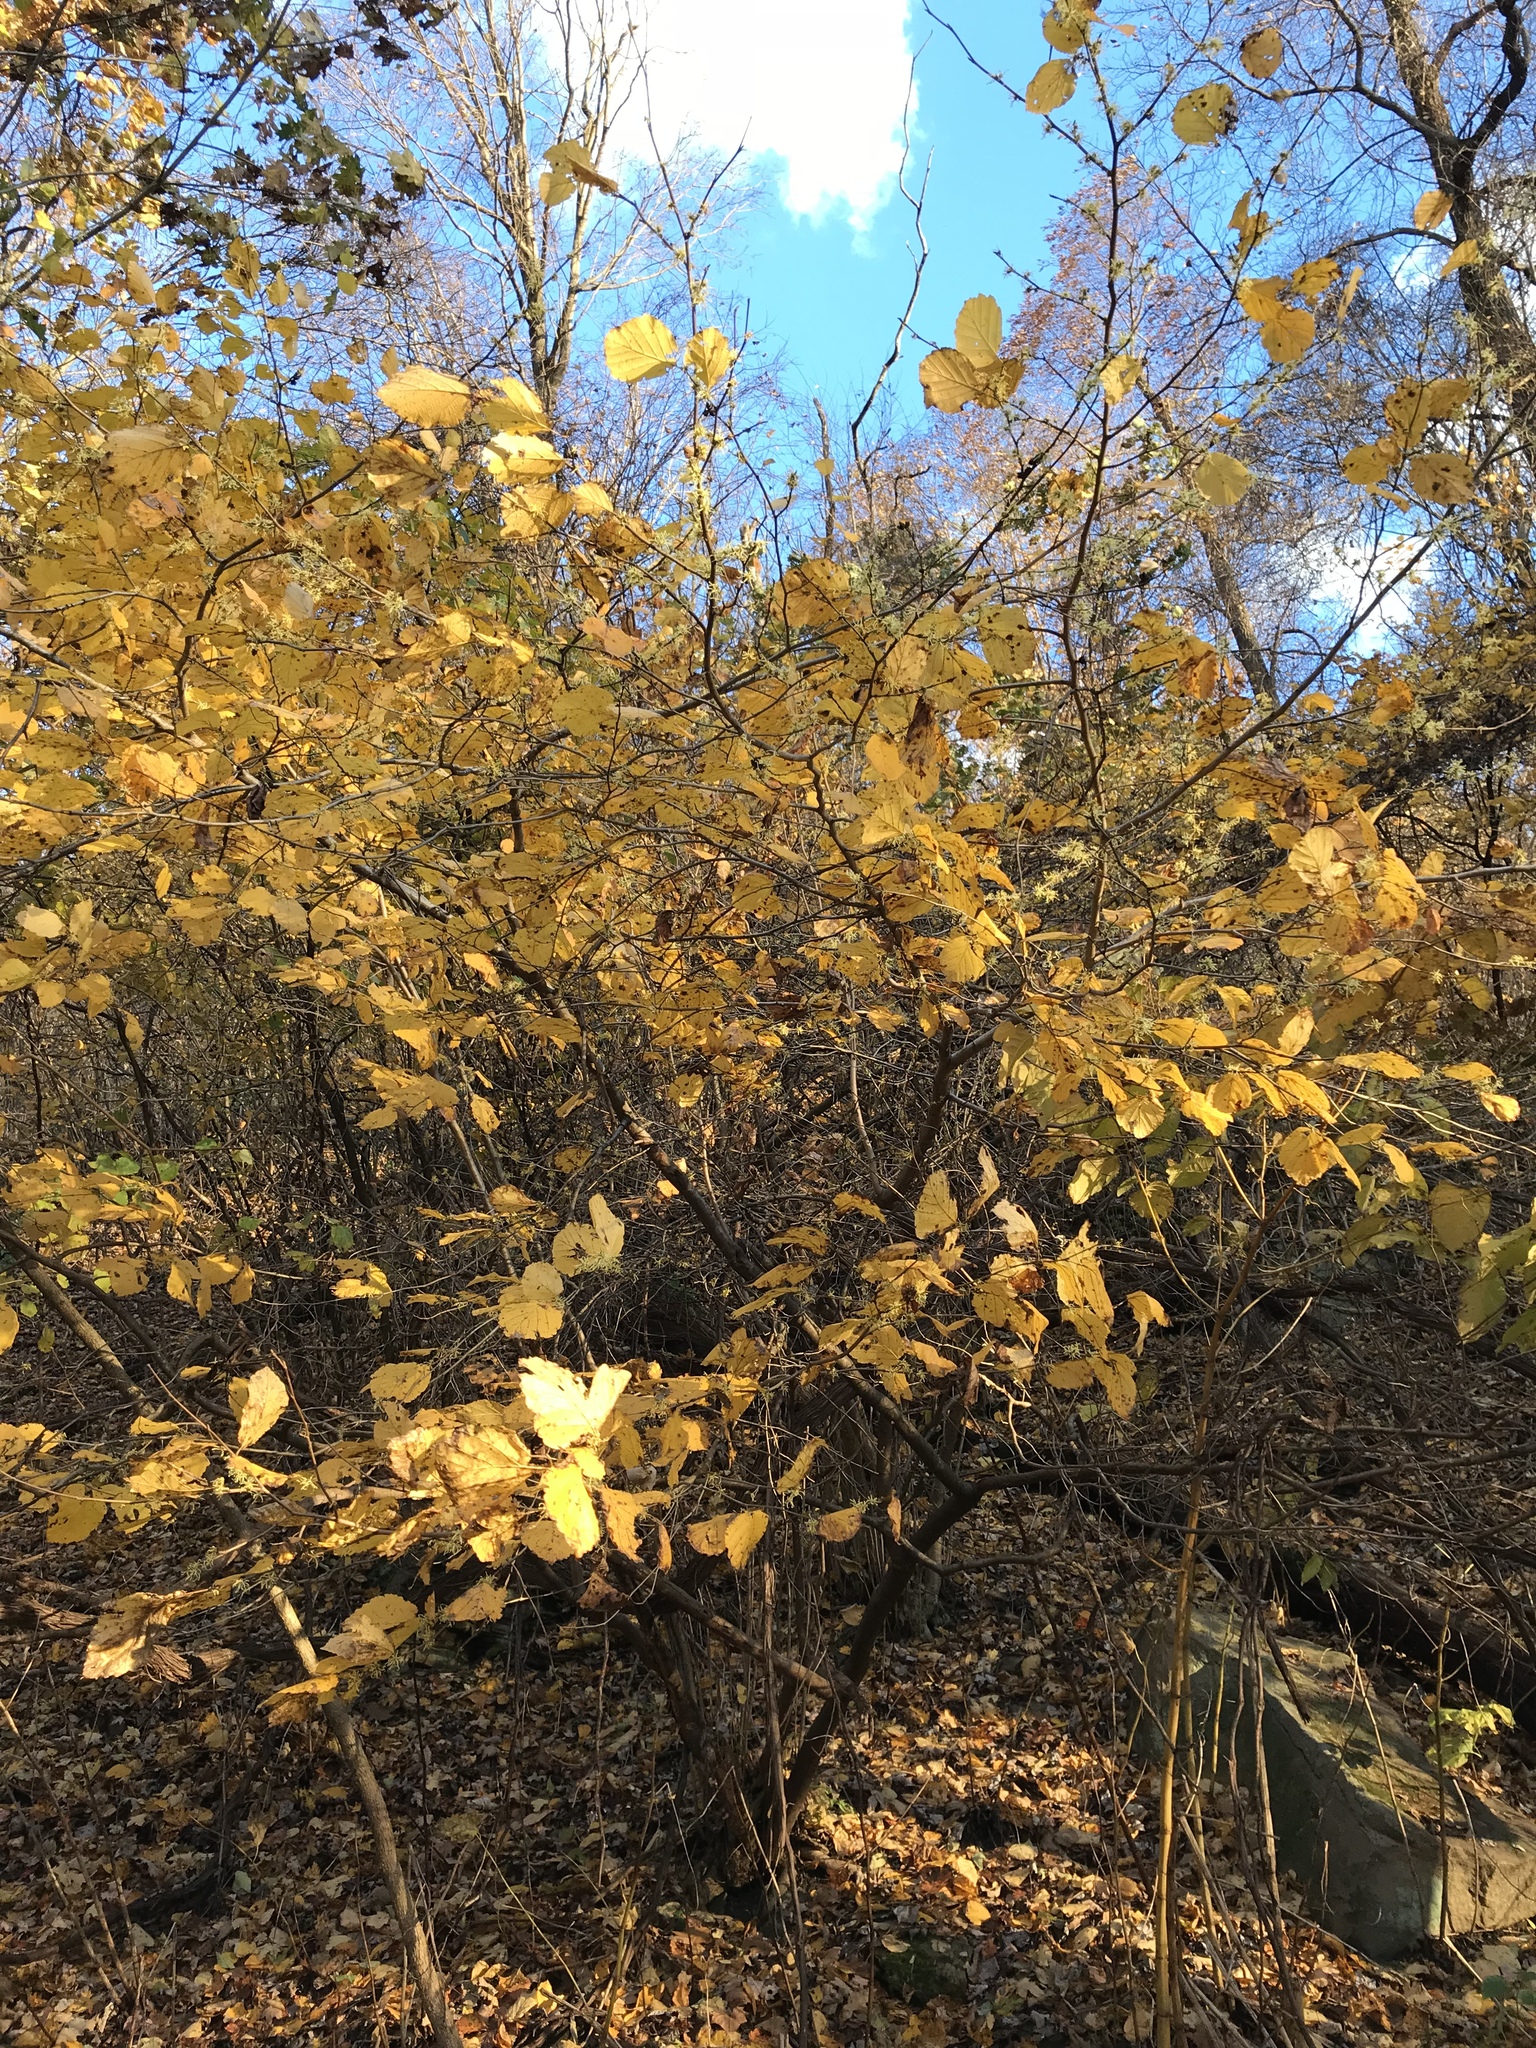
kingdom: Plantae
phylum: Tracheophyta
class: Magnoliopsida
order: Saxifragales
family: Hamamelidaceae
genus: Hamamelis
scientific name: Hamamelis virginiana
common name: Witch-hazel
